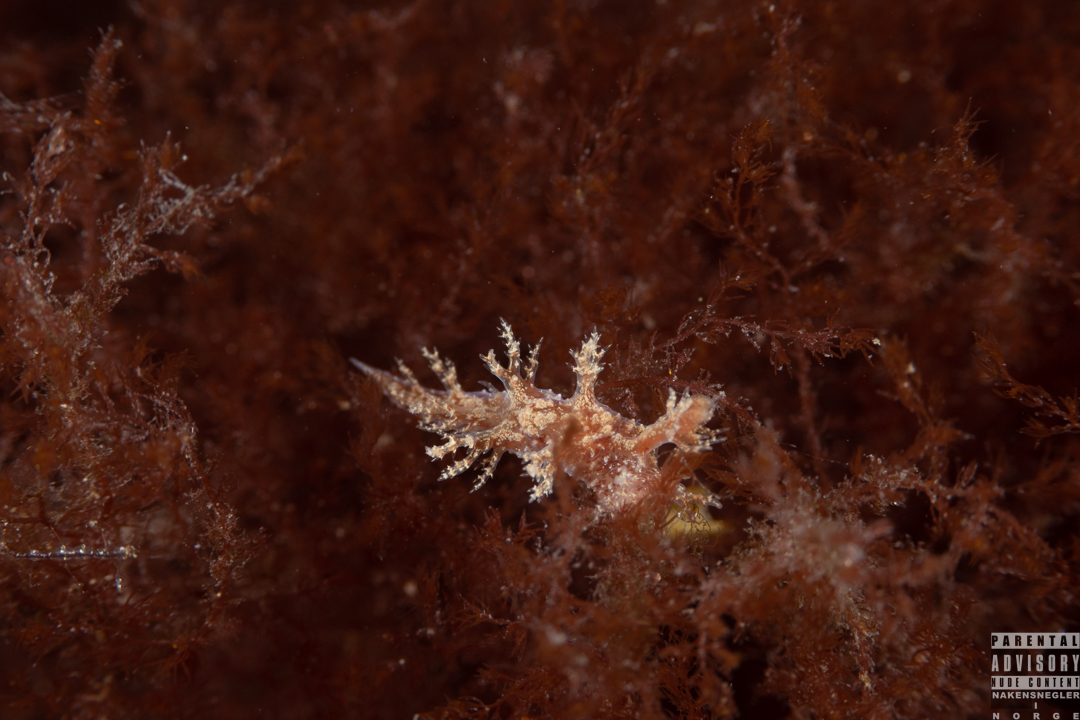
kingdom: Animalia
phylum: Mollusca
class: Gastropoda
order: Nudibranchia
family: Dendronotidae
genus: Dendronotus
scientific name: Dendronotus frondosus
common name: Bushy-backed nudibranch
